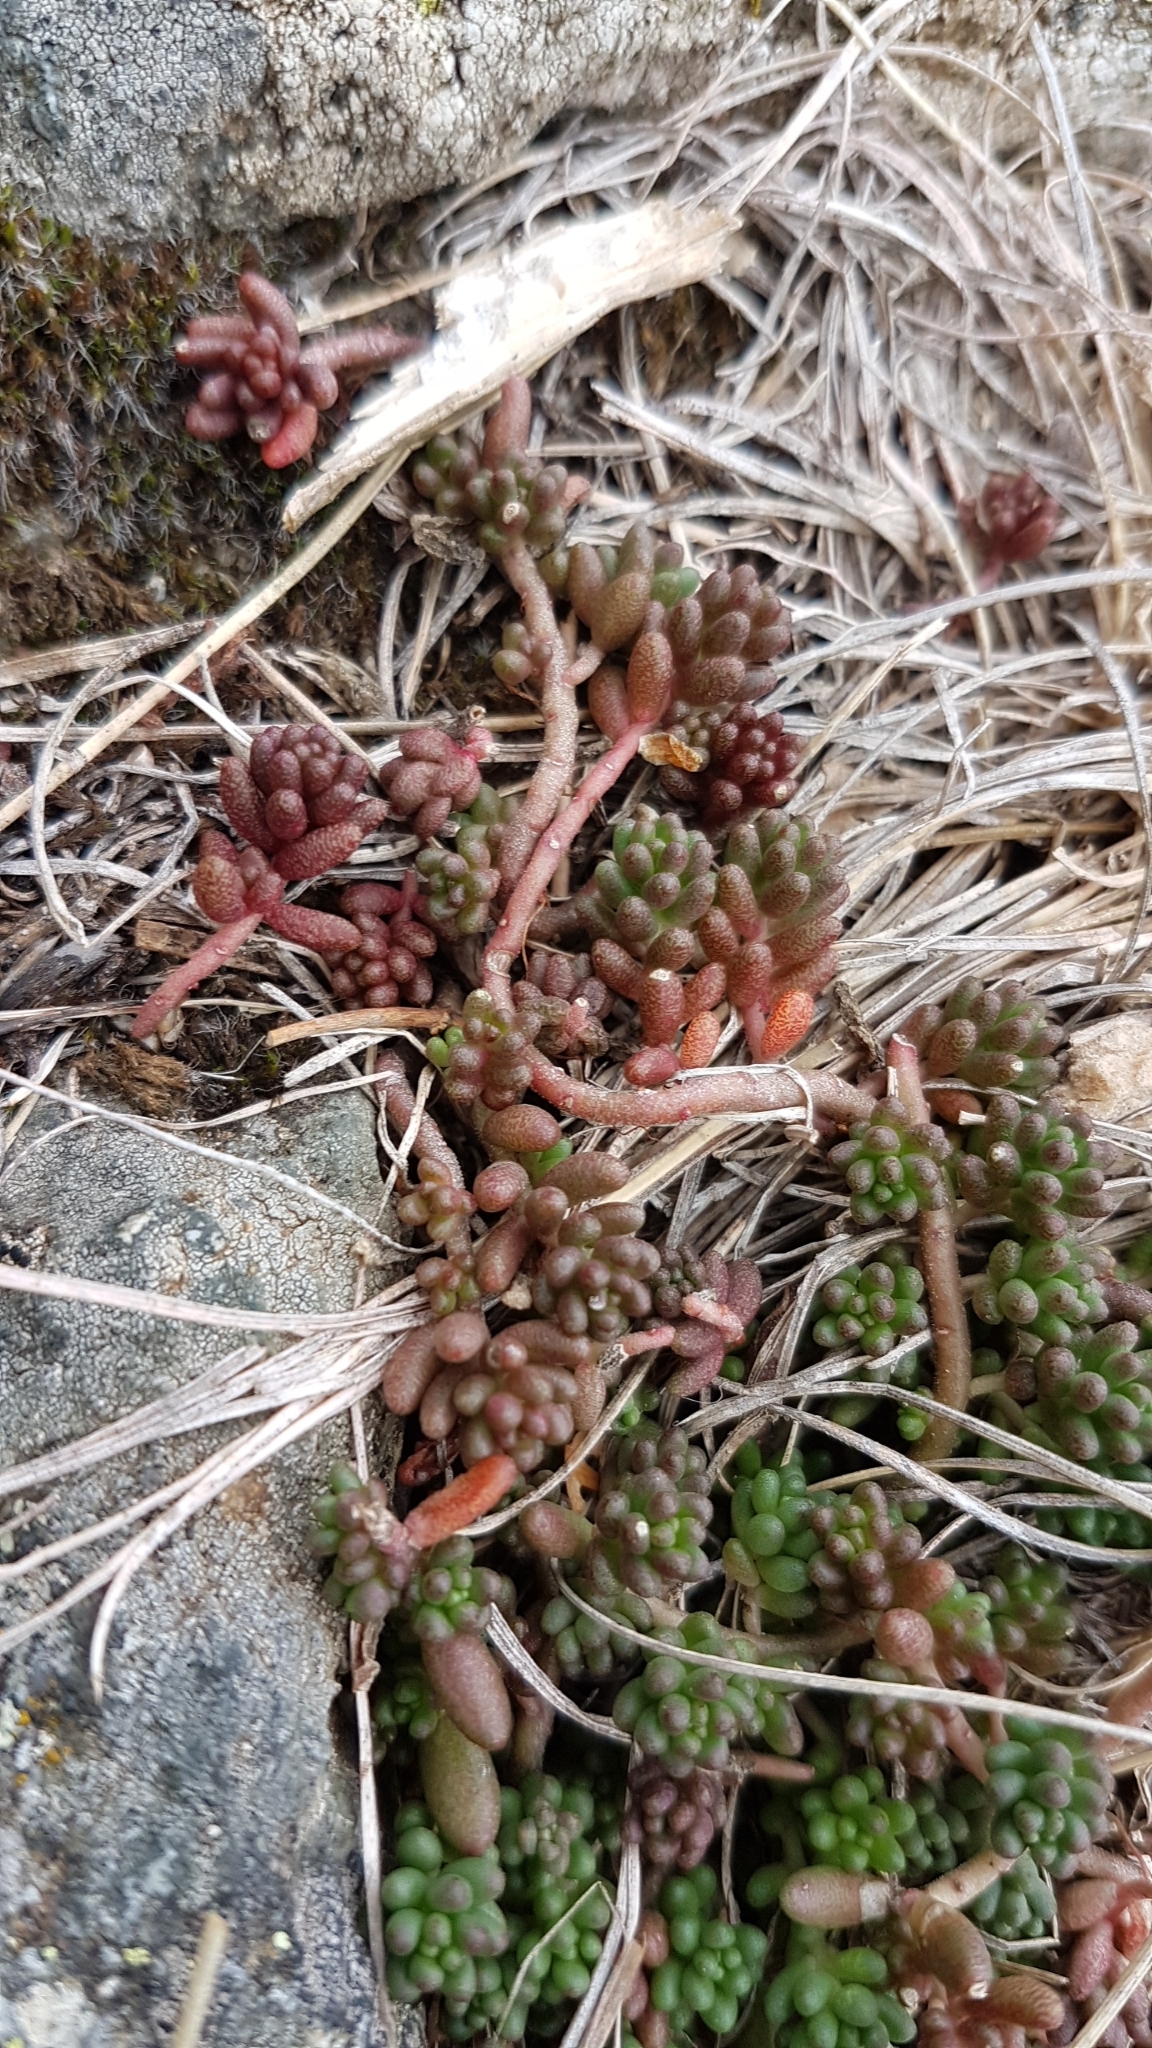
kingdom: Plantae
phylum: Tracheophyta
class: Magnoliopsida
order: Saxifragales
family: Crassulaceae
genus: Sedum
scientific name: Sedum album
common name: White stonecrop
